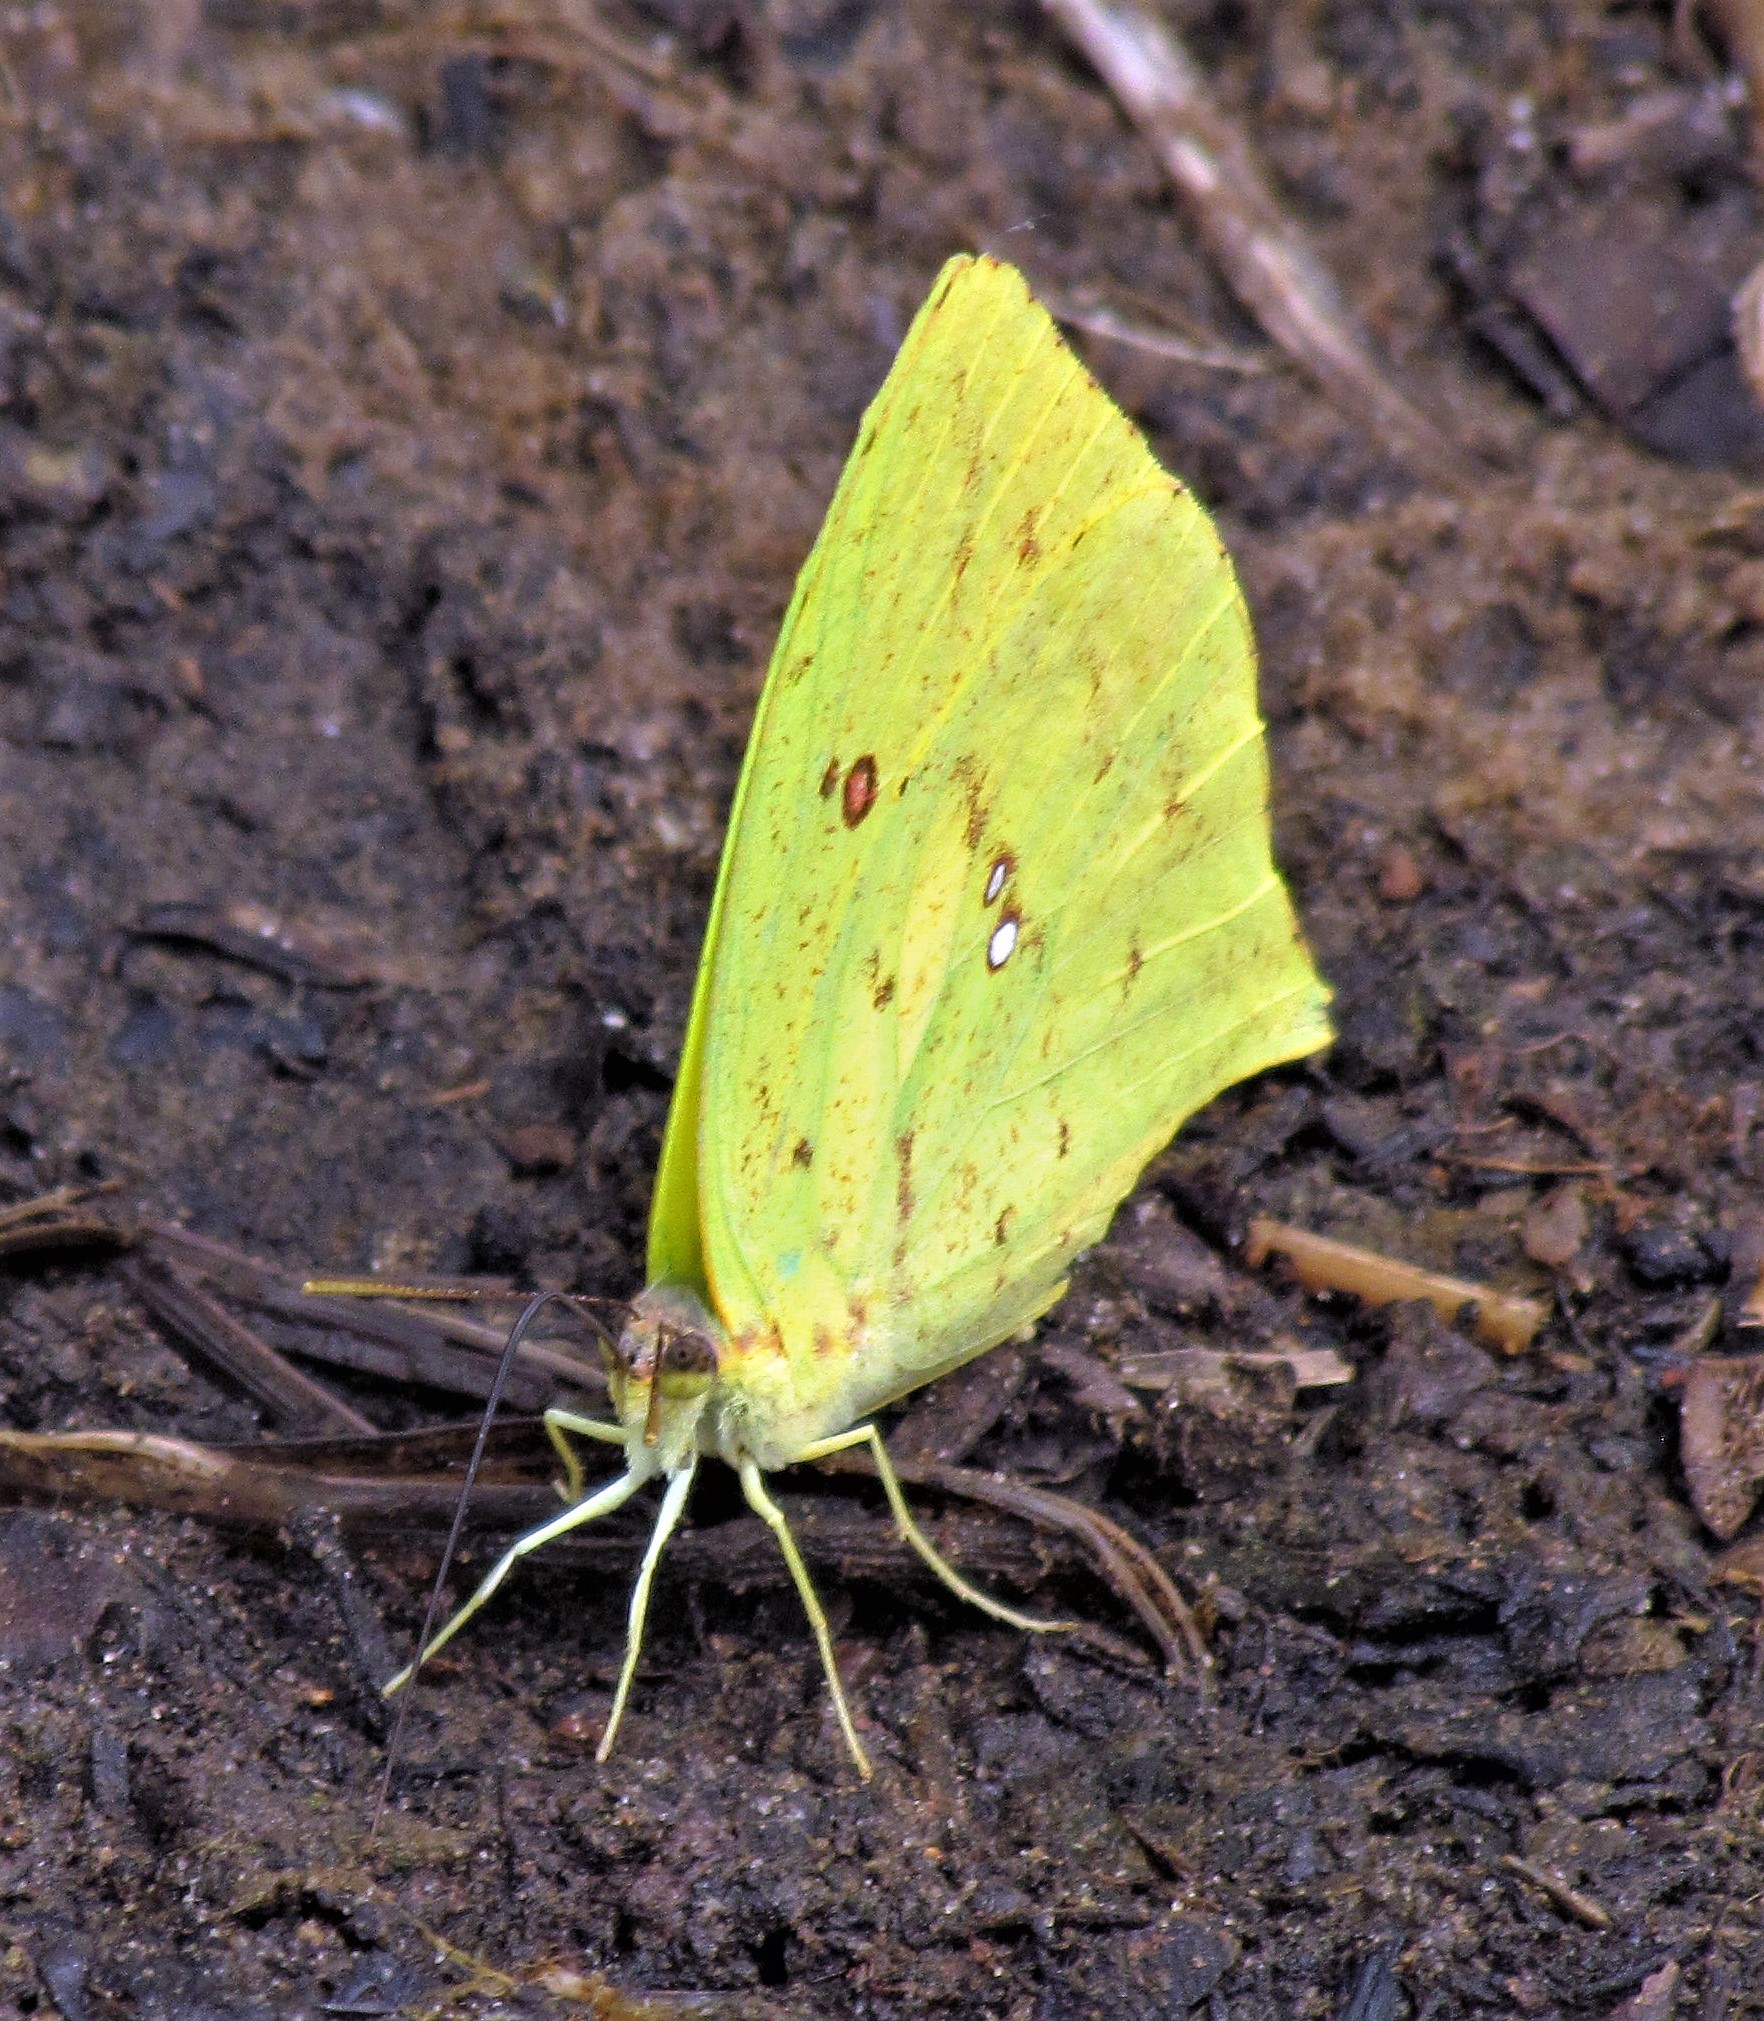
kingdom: Animalia
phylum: Arthropoda
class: Insecta
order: Lepidoptera
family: Pieridae
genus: Phoebis
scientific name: Phoebis neocypris
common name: Tailed sulphur
